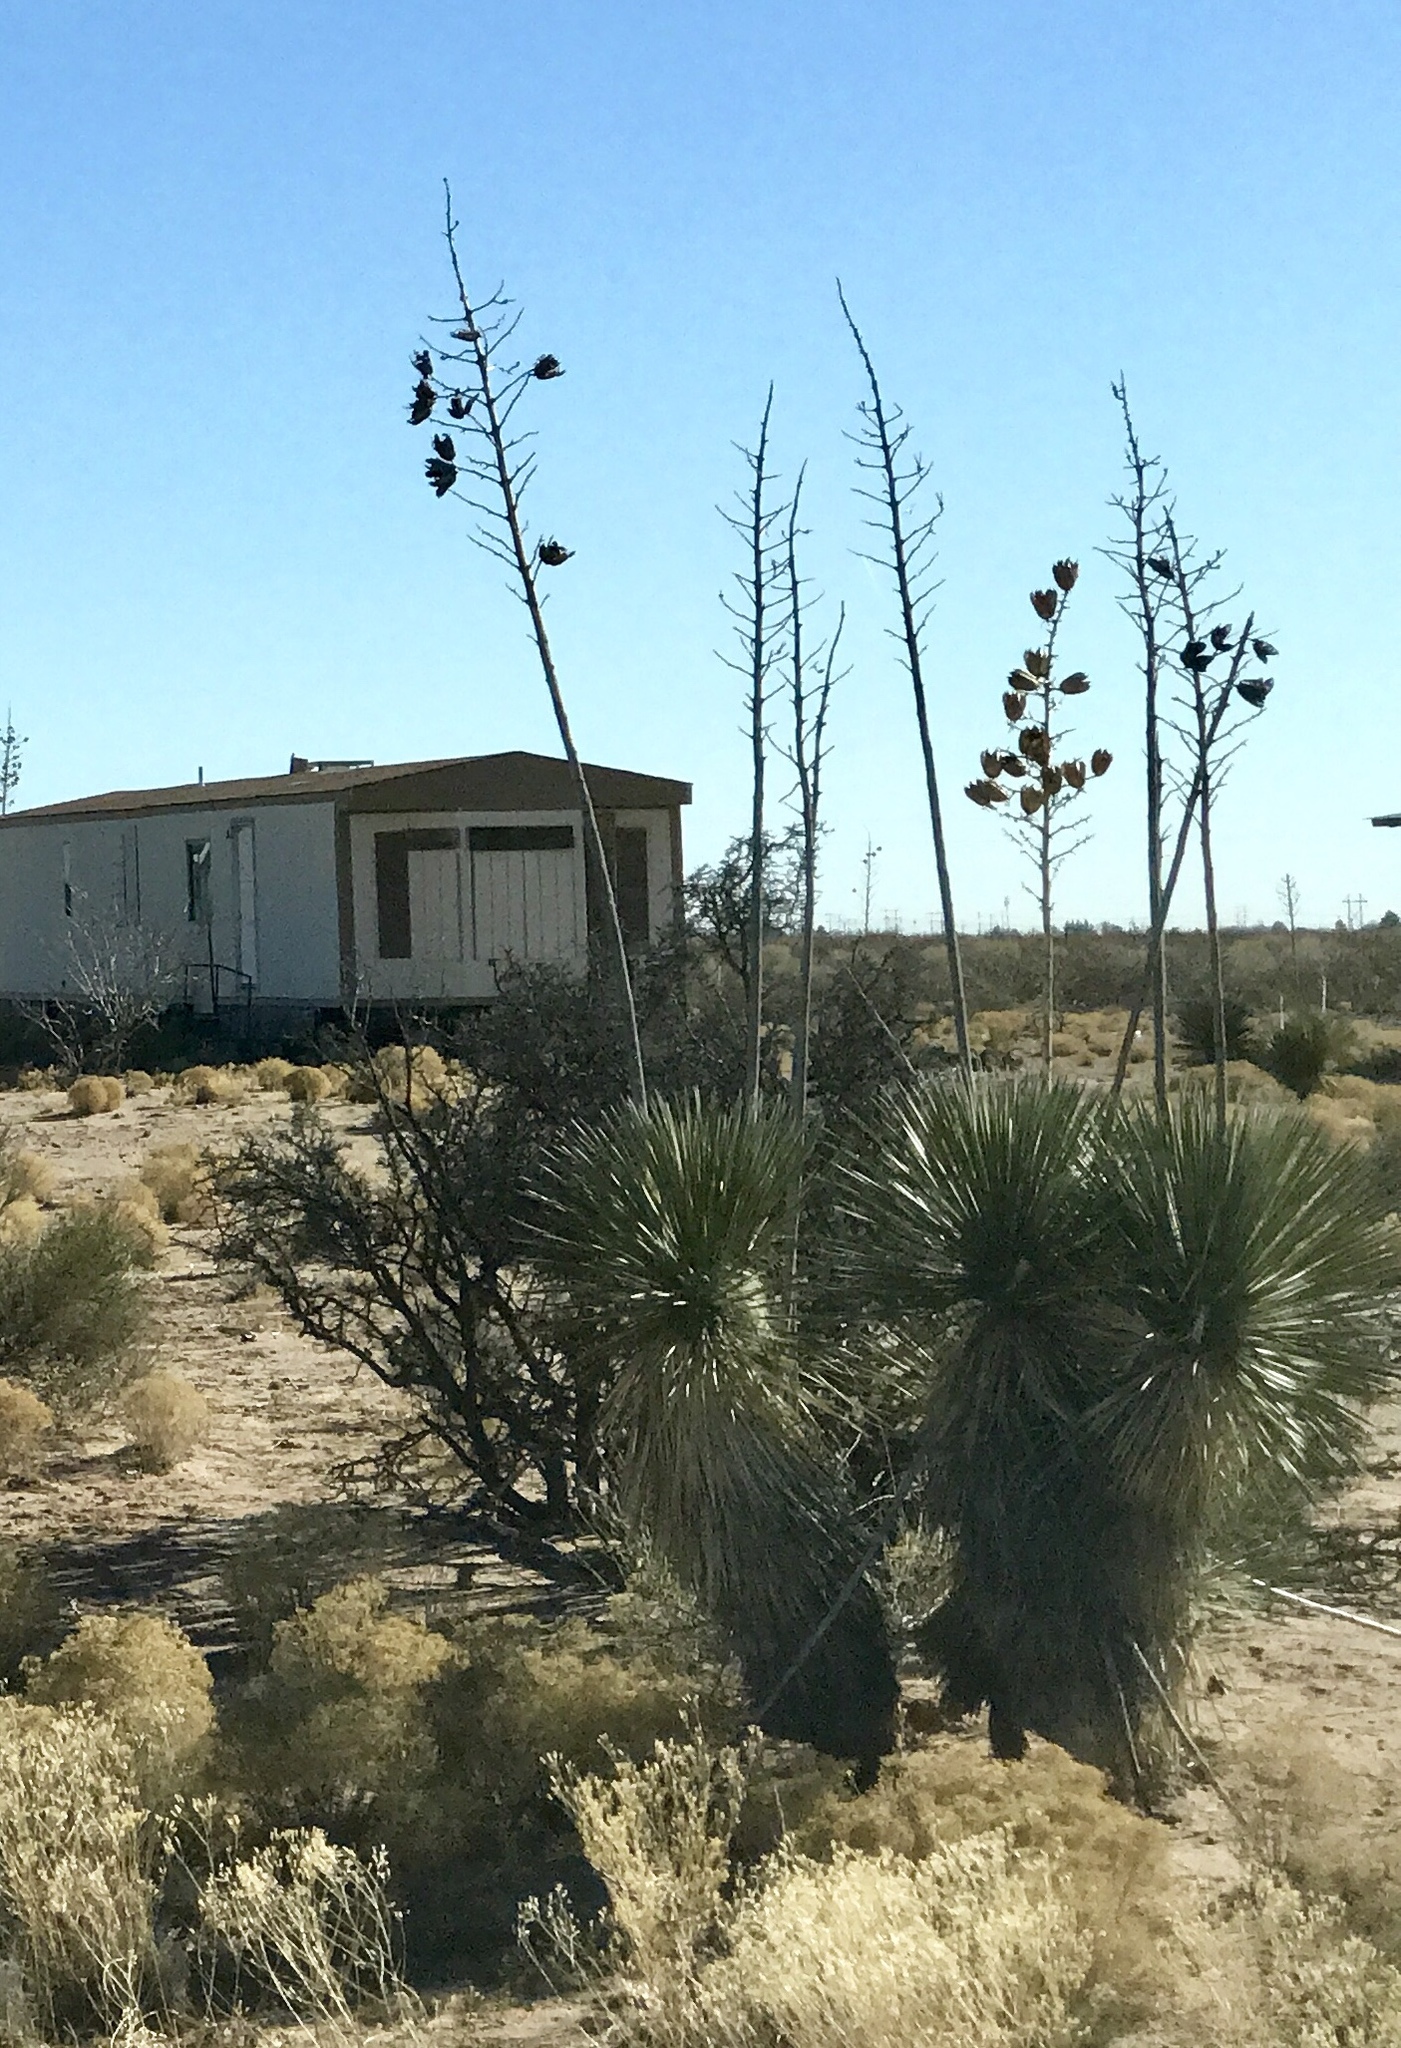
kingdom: Plantae
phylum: Tracheophyta
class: Liliopsida
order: Asparagales
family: Asparagaceae
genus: Yucca
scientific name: Yucca elata
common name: Palmella
